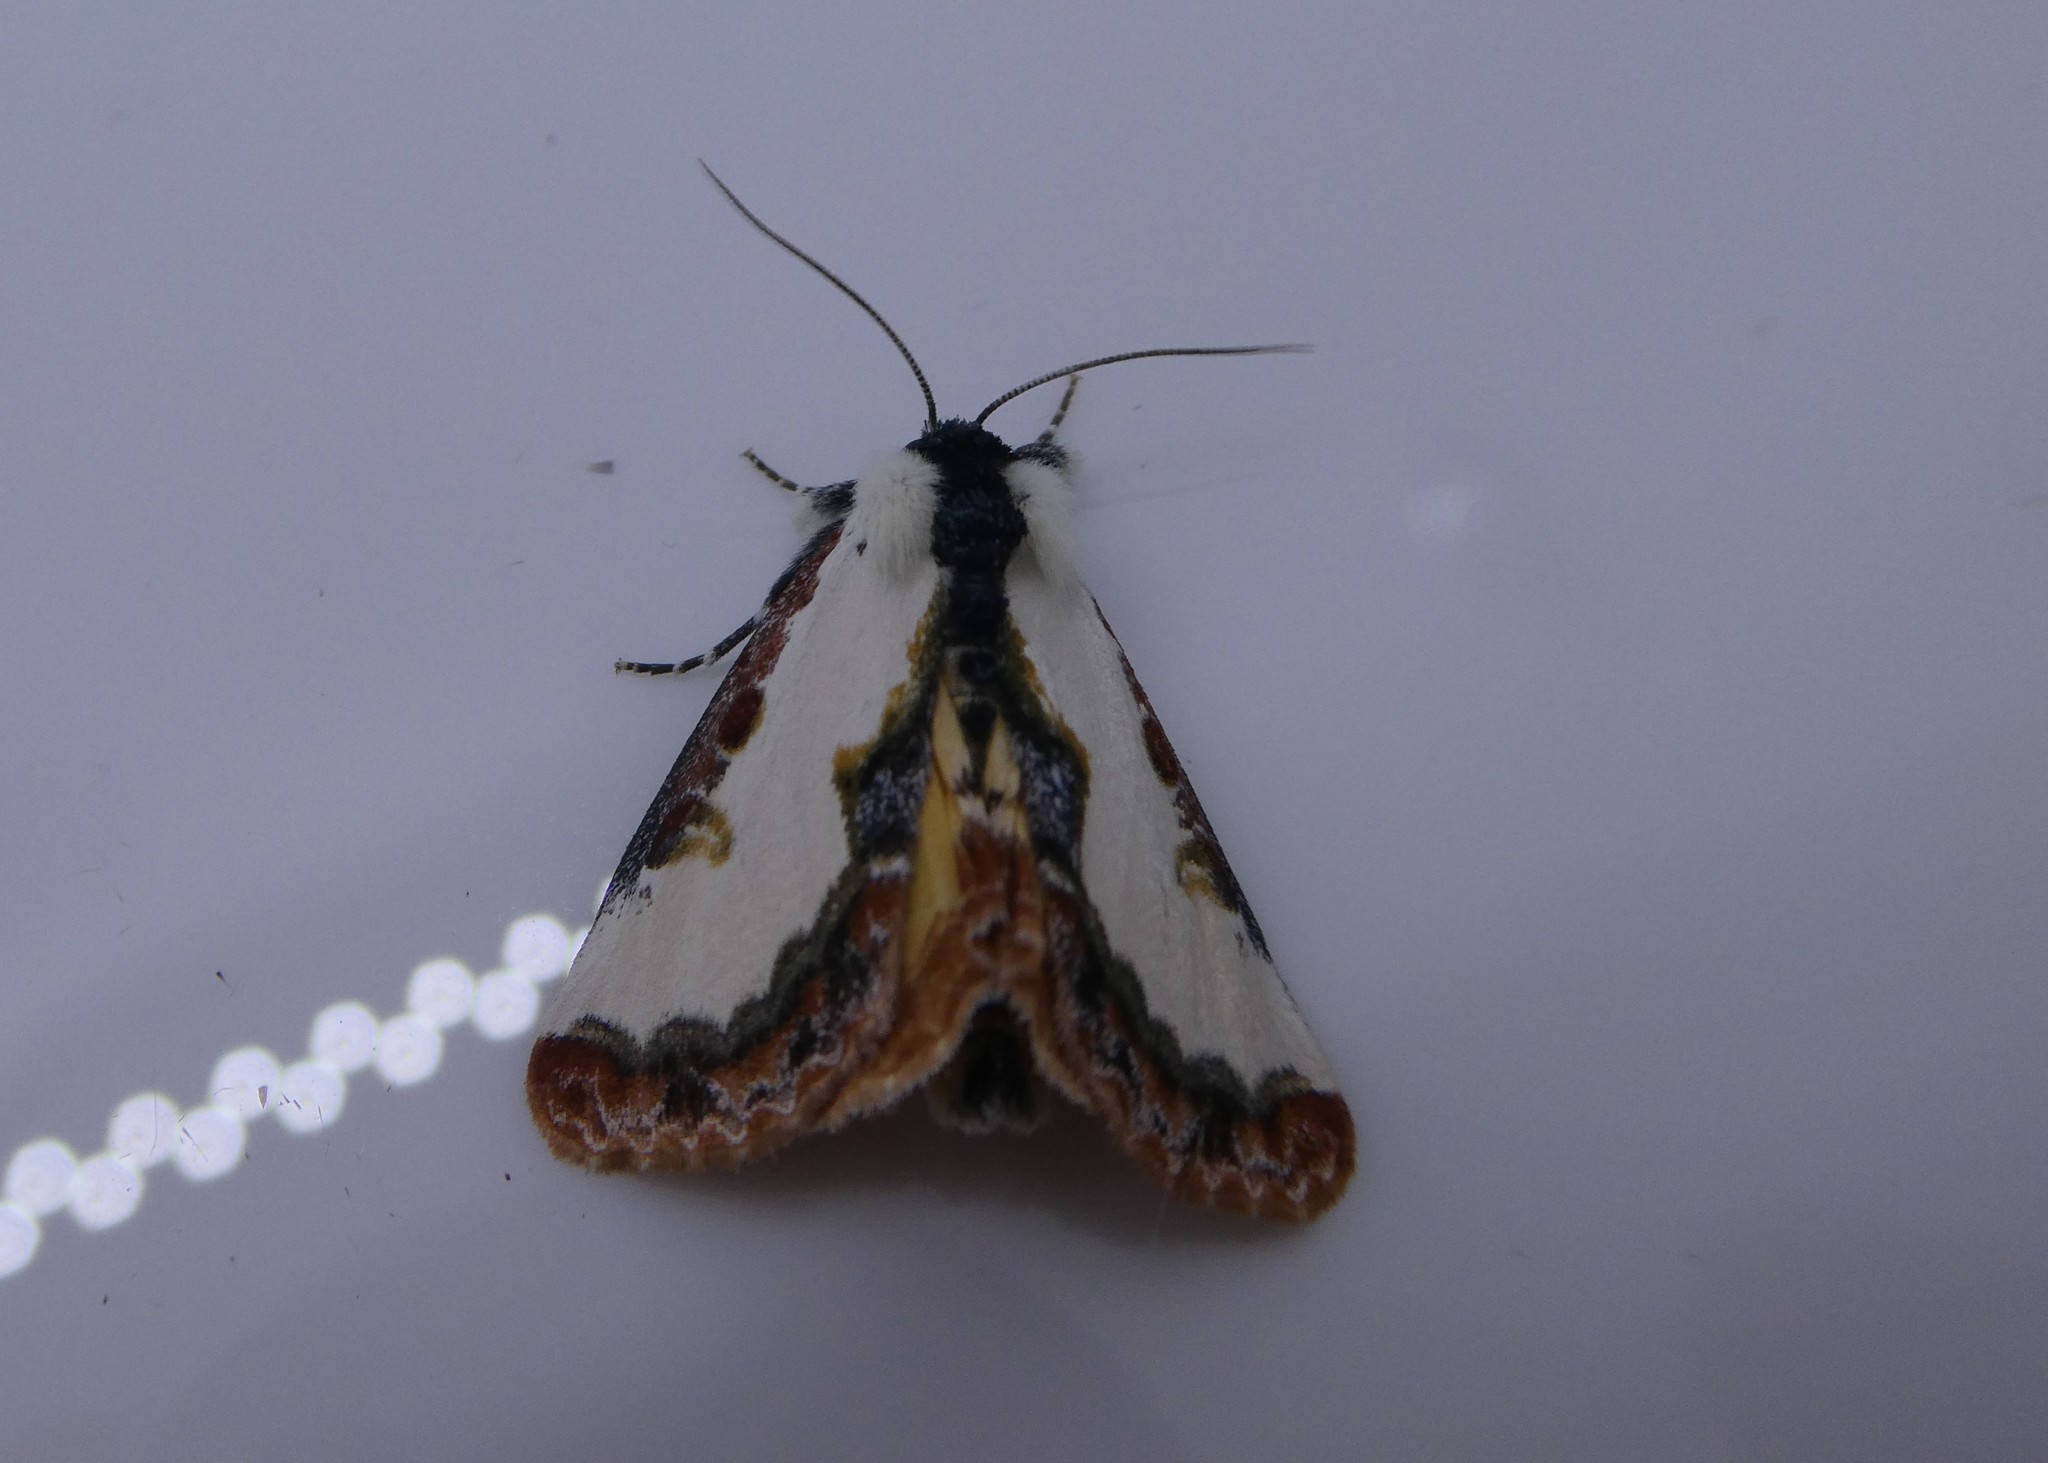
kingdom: Animalia
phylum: Arthropoda
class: Insecta
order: Lepidoptera
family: Noctuidae
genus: Eudryas
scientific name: Eudryas unio
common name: Pearly wood-nymph
